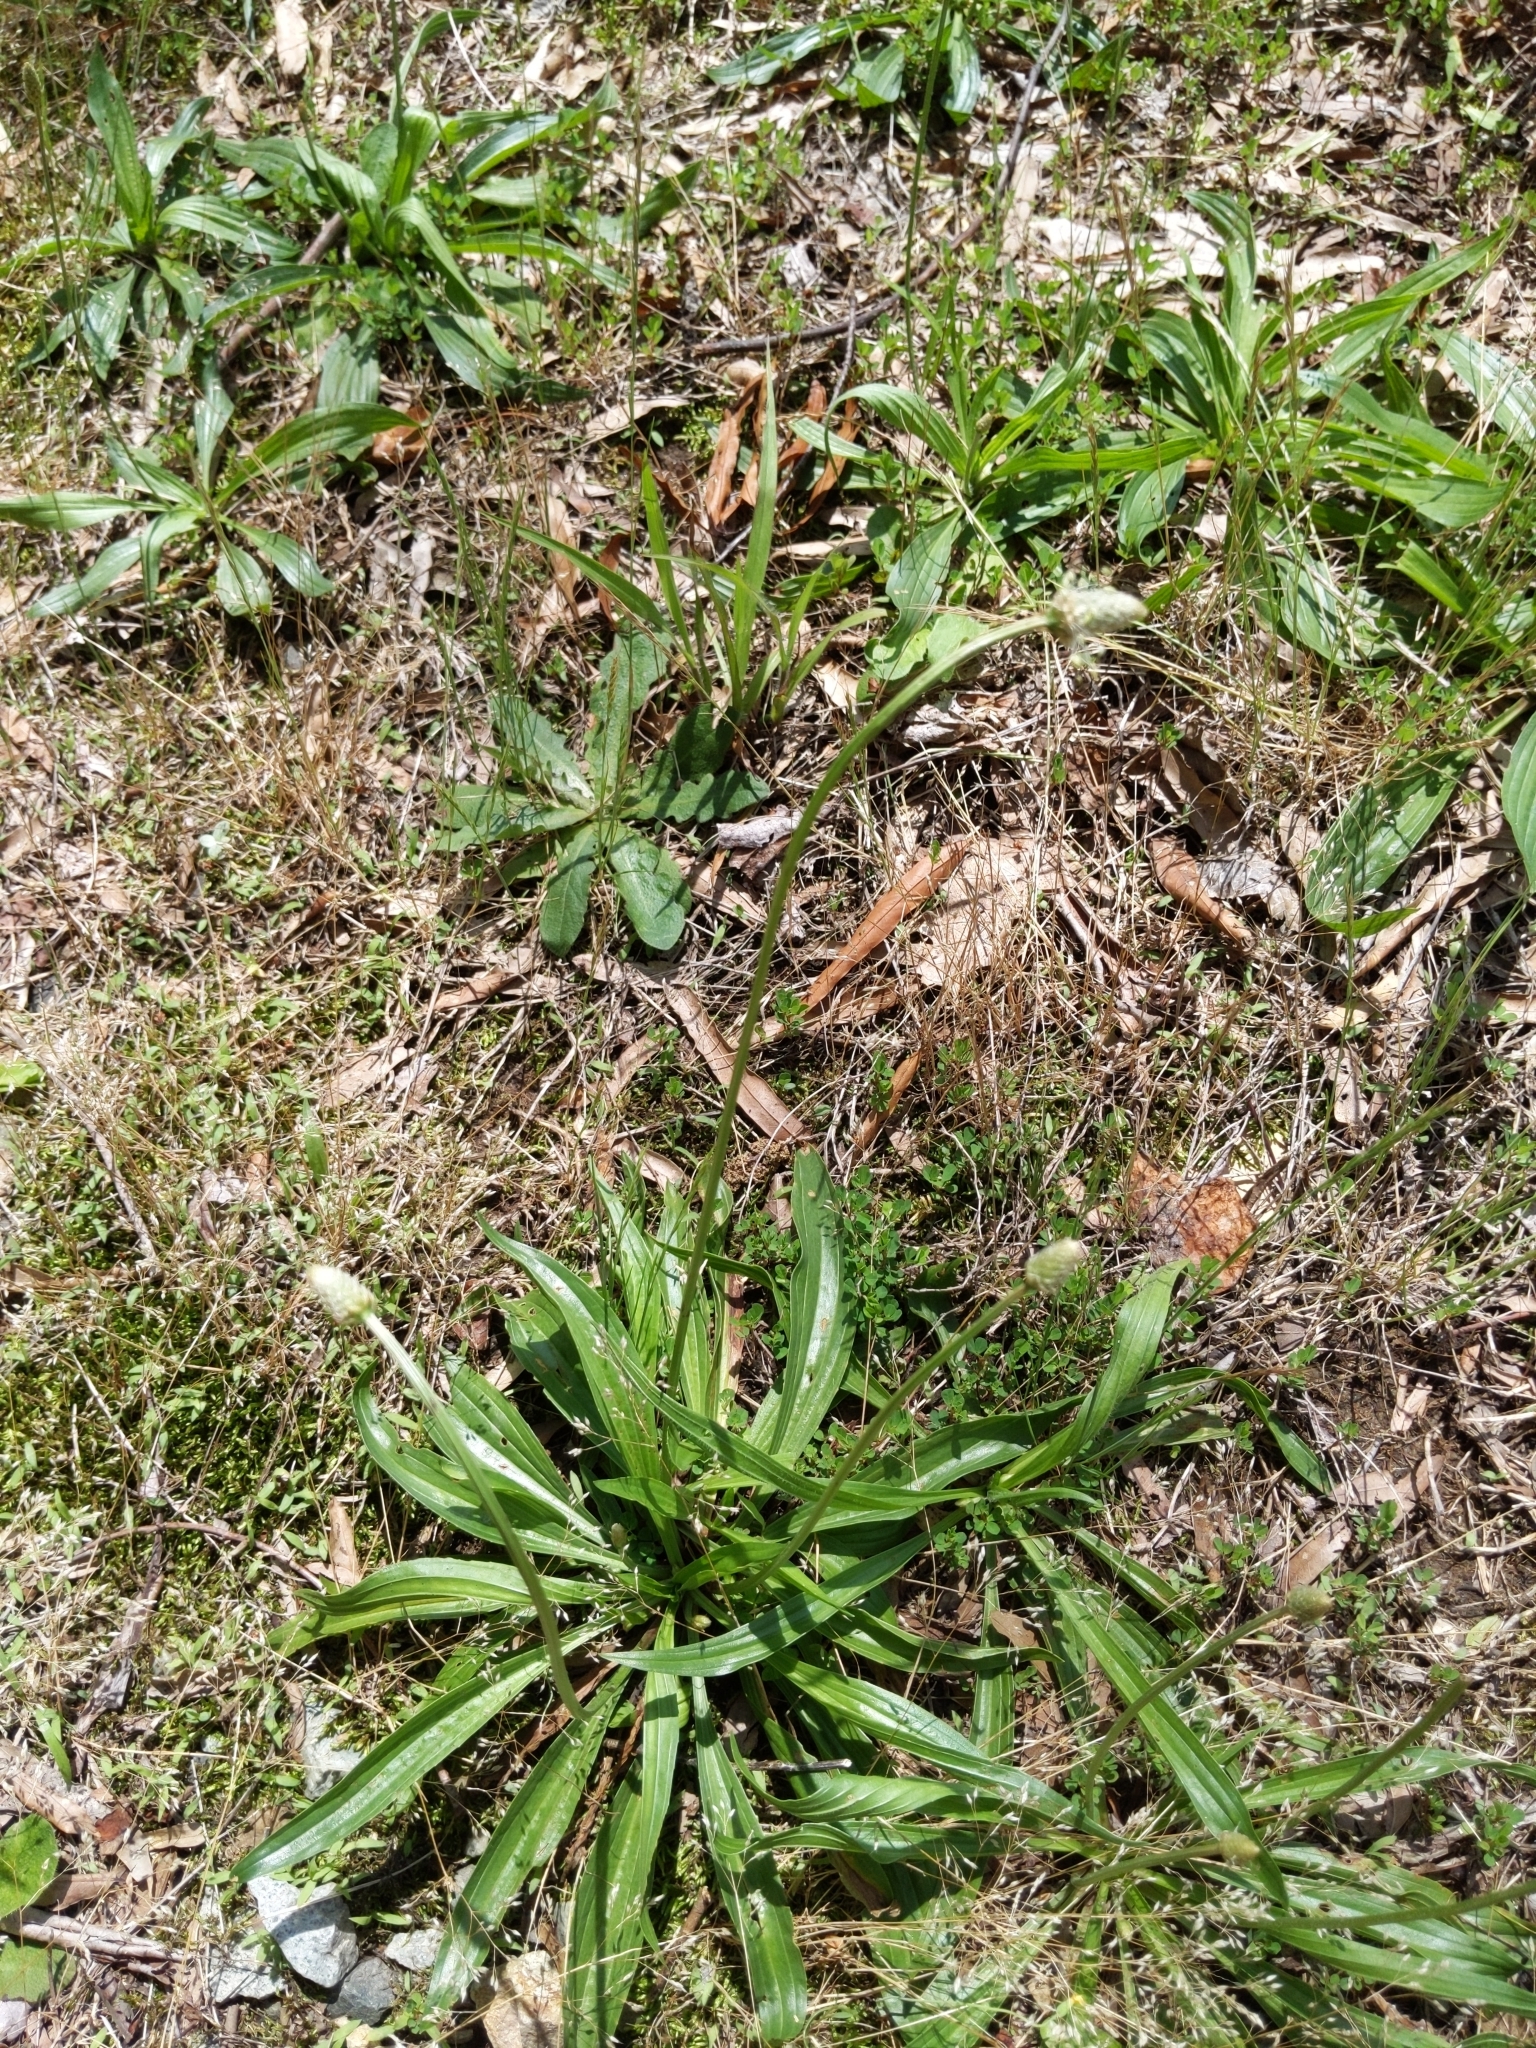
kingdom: Plantae
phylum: Tracheophyta
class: Magnoliopsida
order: Lamiales
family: Plantaginaceae
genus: Plantago
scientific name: Plantago lanceolata
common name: Ribwort plantain
